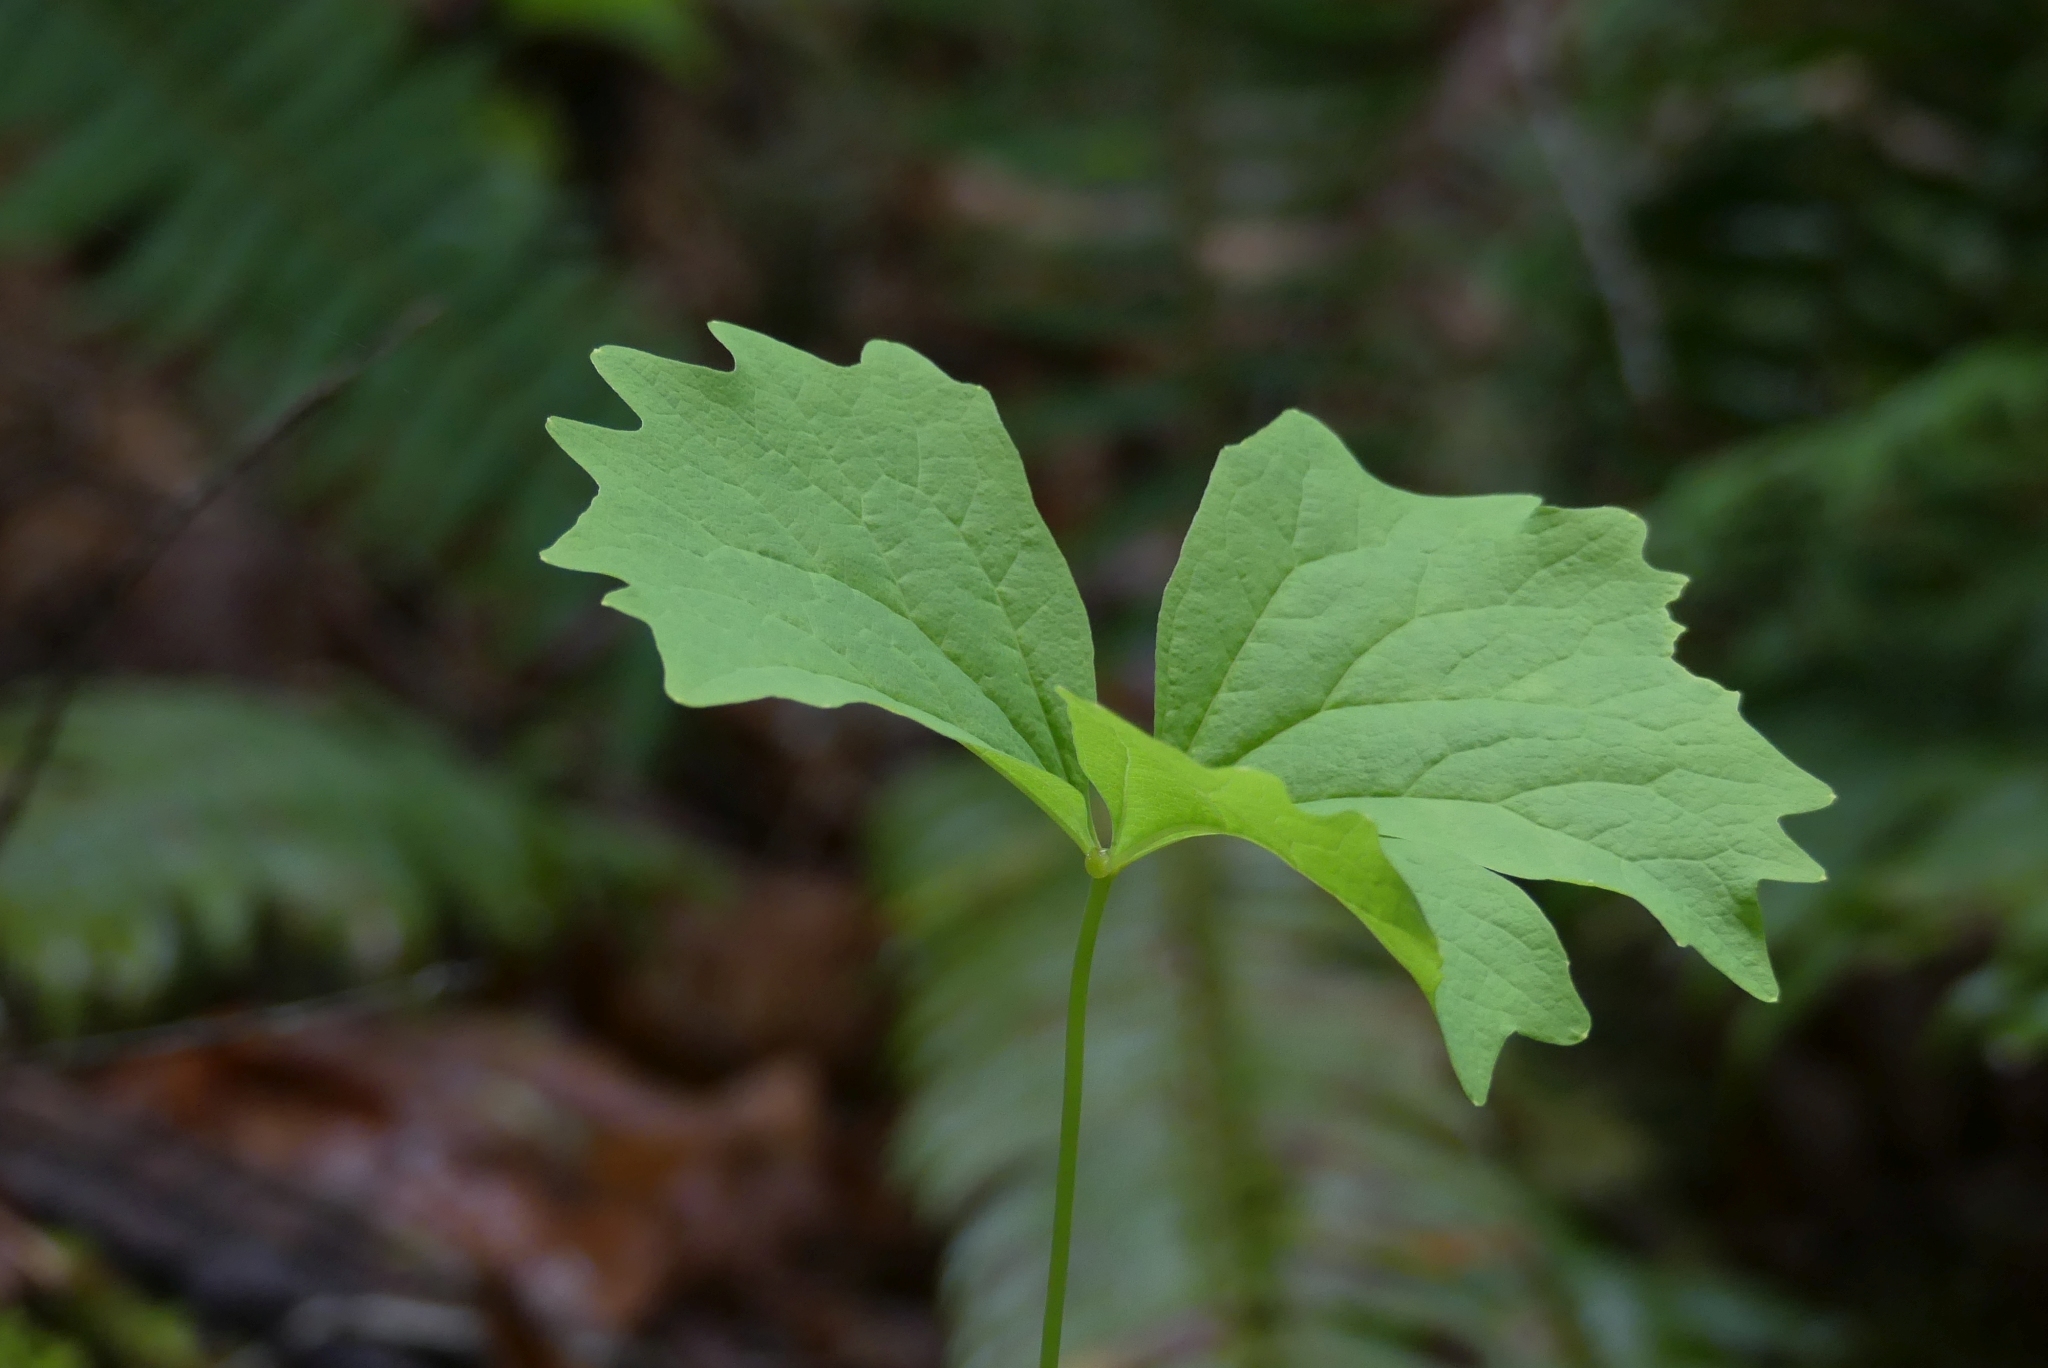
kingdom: Plantae
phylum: Tracheophyta
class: Magnoliopsida
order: Ranunculales
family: Berberidaceae
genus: Achlys
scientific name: Achlys triphylla
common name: Vanilla-leaf
